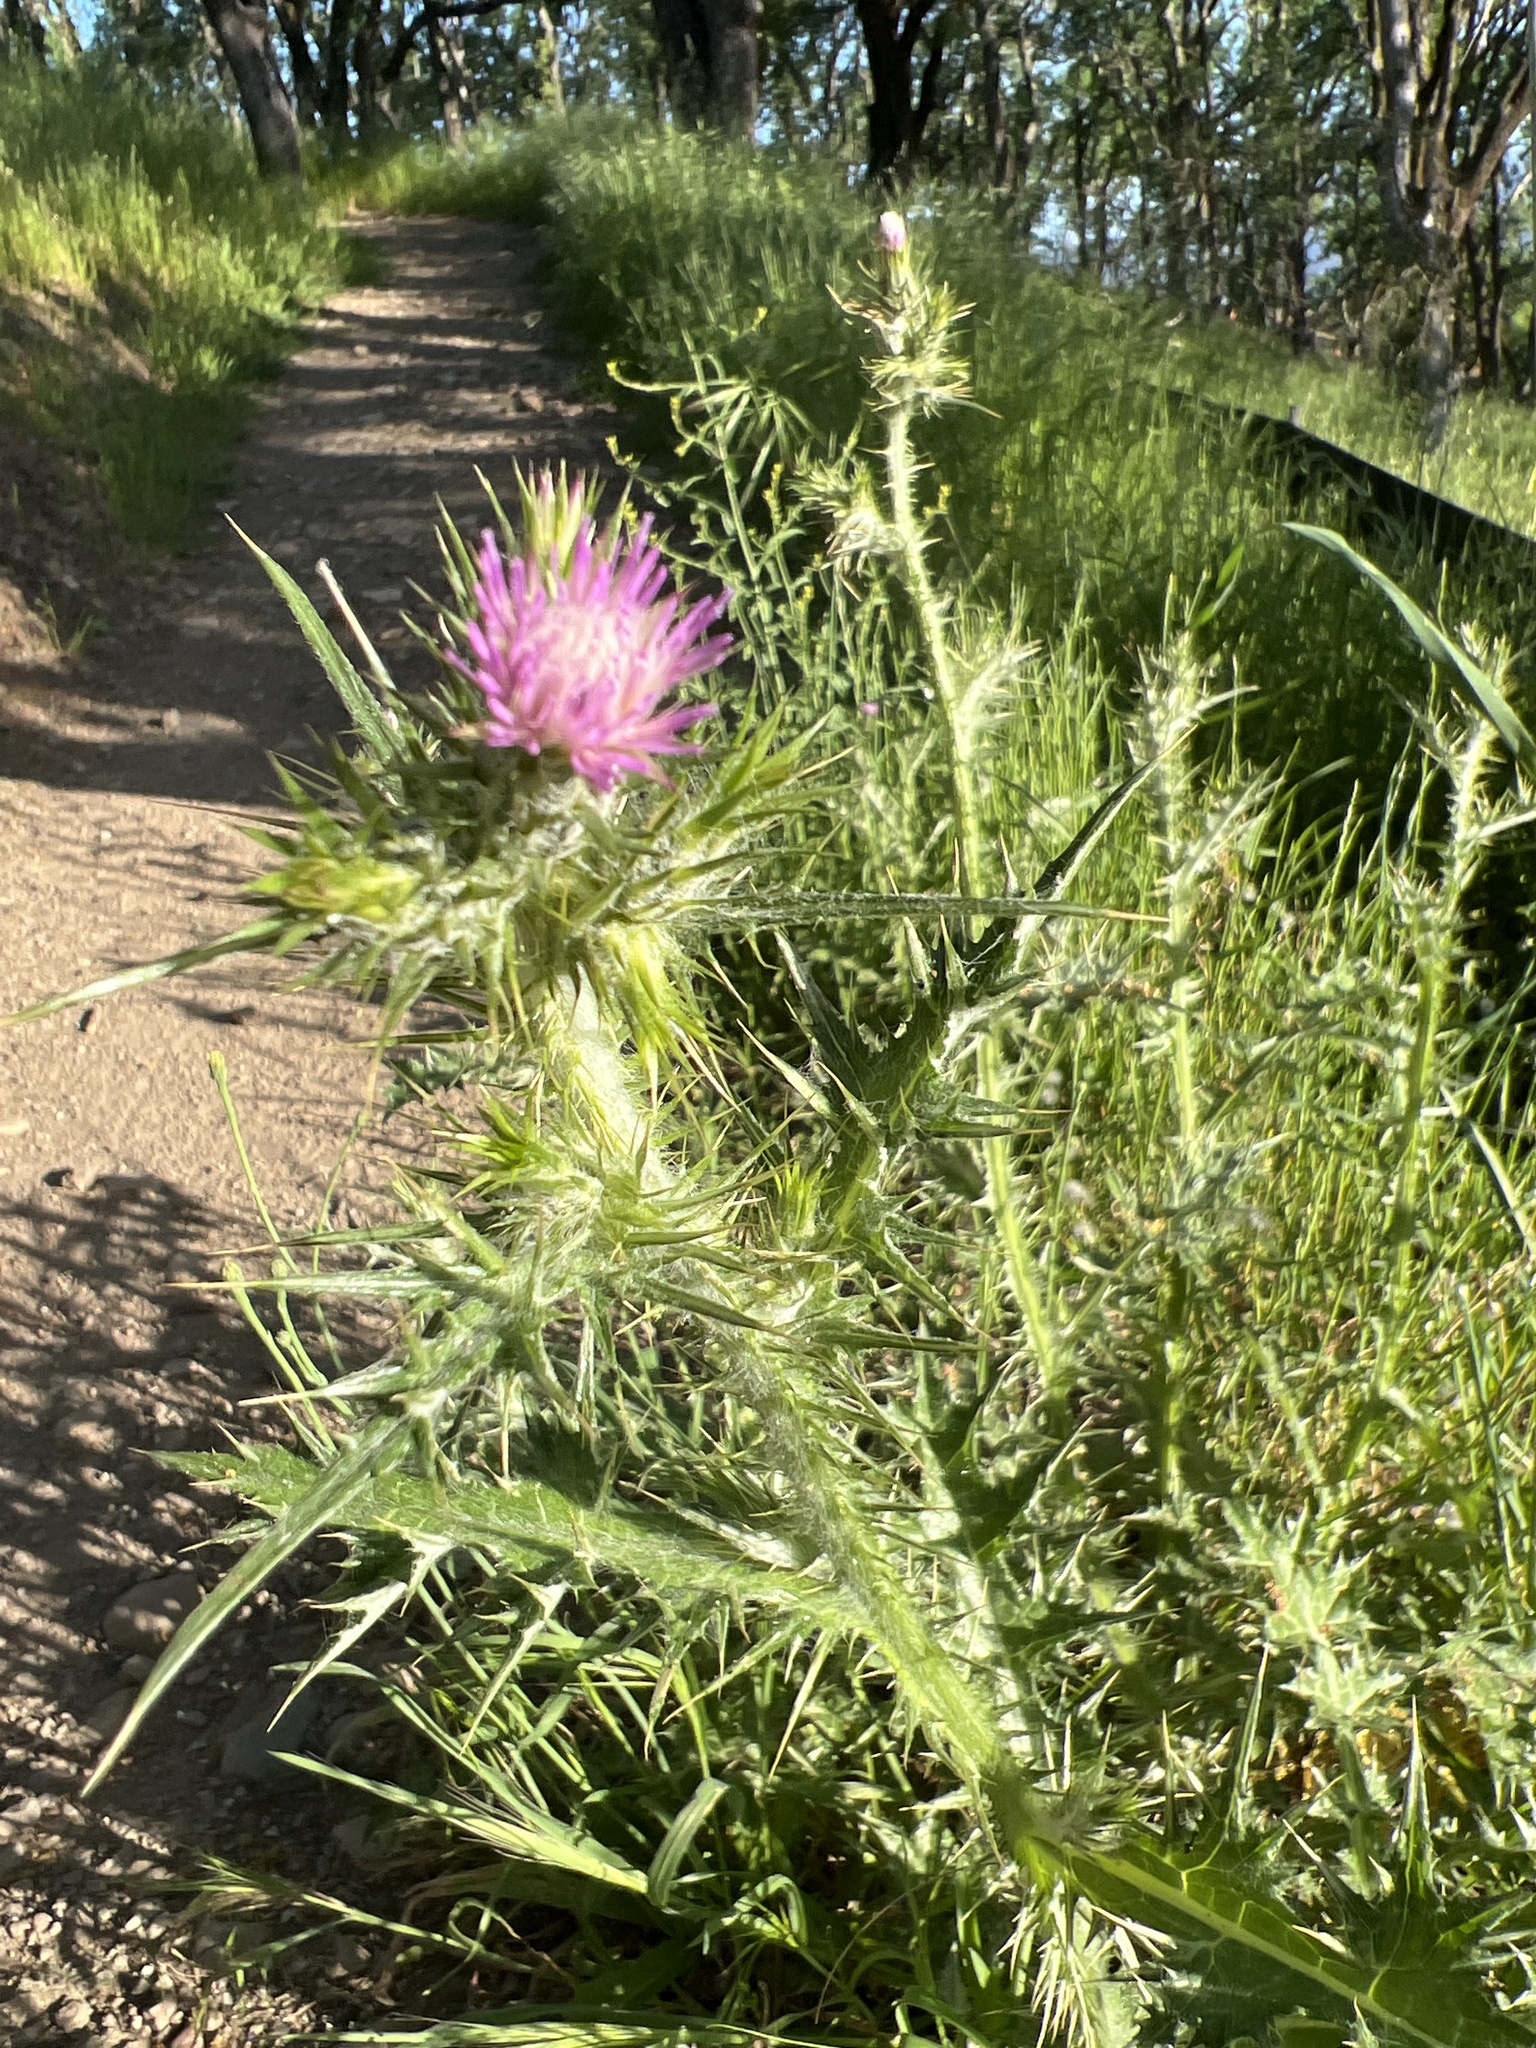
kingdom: Plantae
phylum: Tracheophyta
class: Magnoliopsida
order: Asterales
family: Asteraceae
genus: Carduus
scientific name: Carduus pycnocephalus
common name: Plymouth thistle
